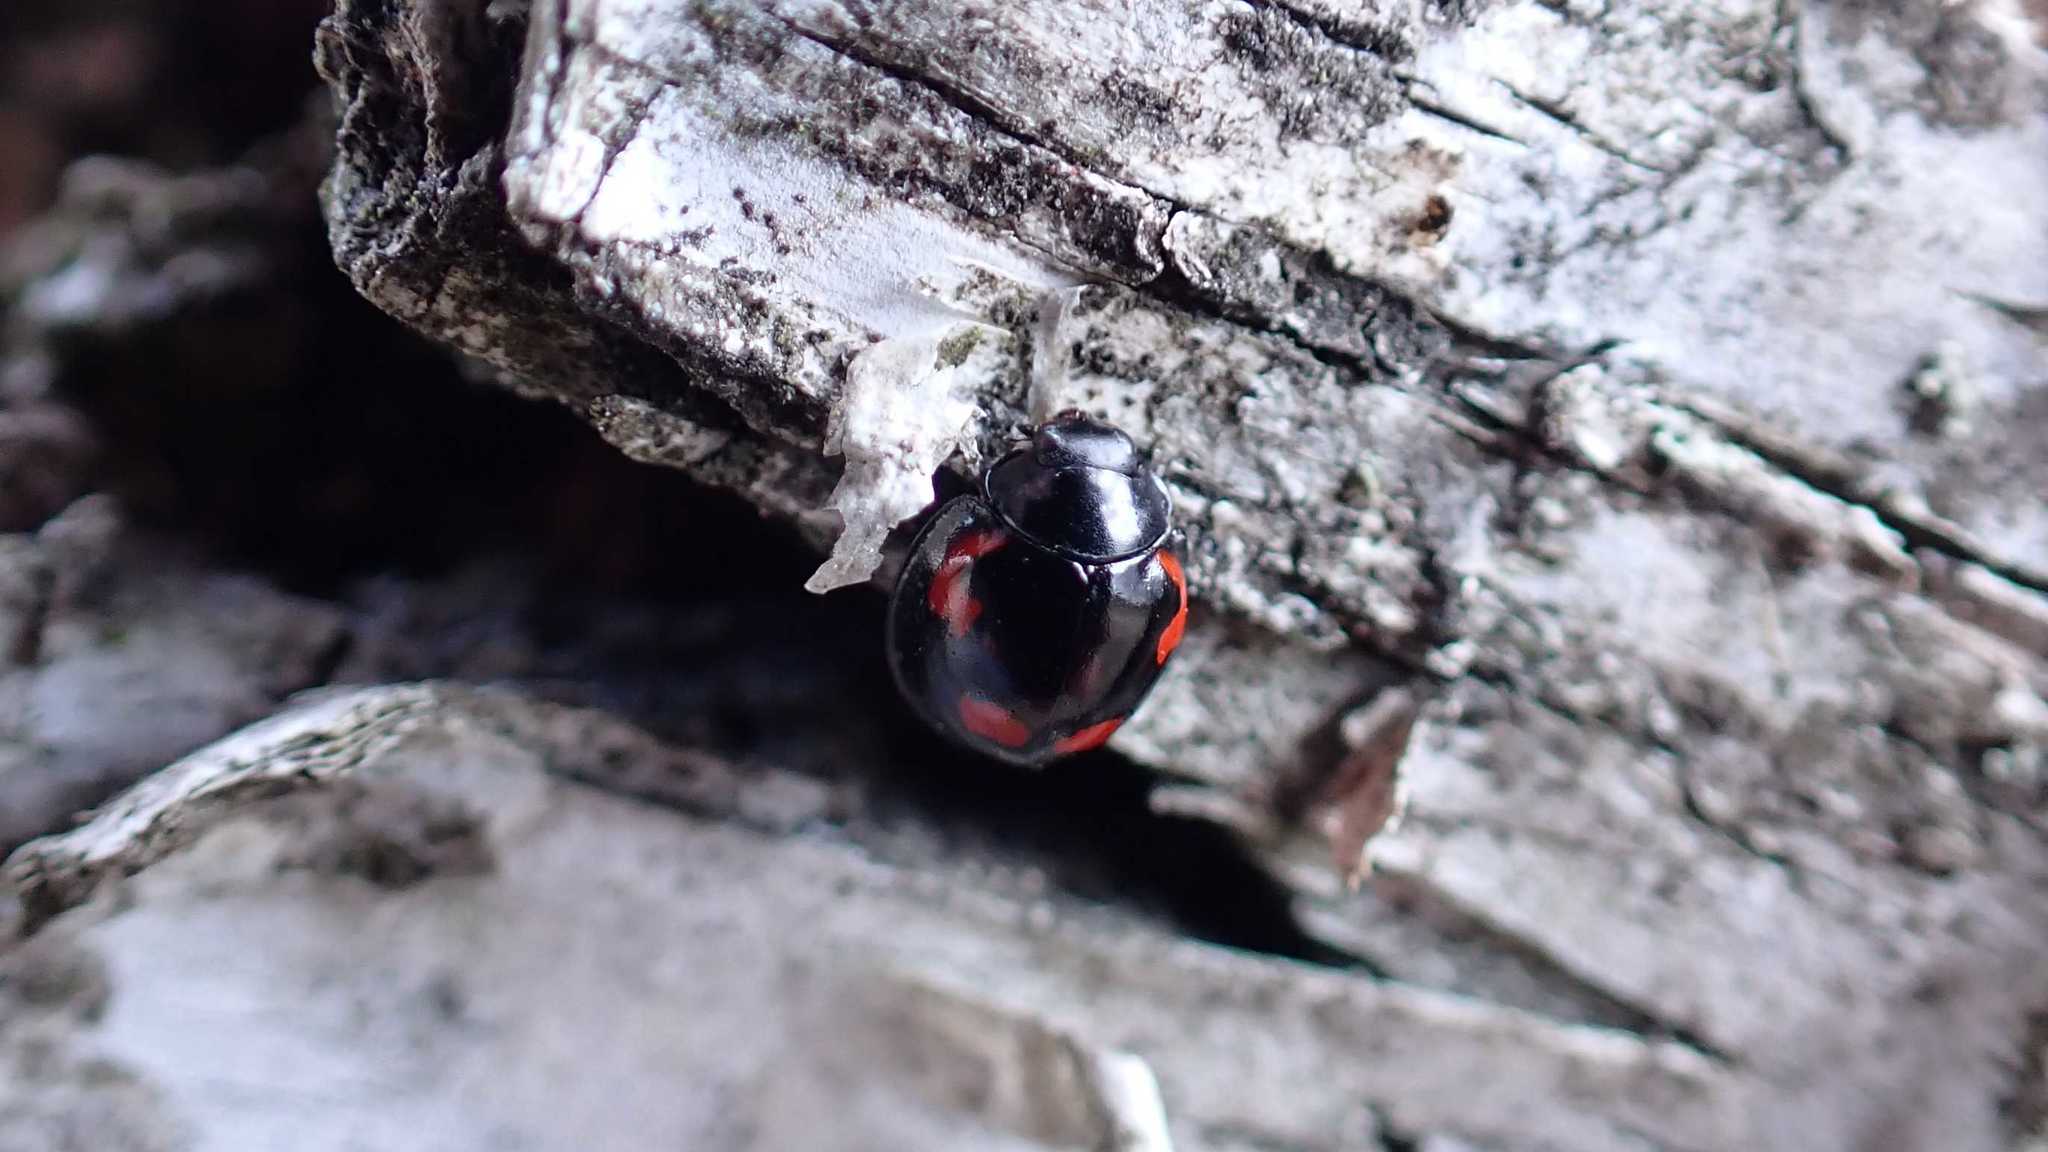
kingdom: Animalia
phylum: Arthropoda
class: Insecta
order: Coleoptera
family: Coccinellidae
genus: Brumus
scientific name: Brumus quadripustulatus
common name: Ladybird beetle
